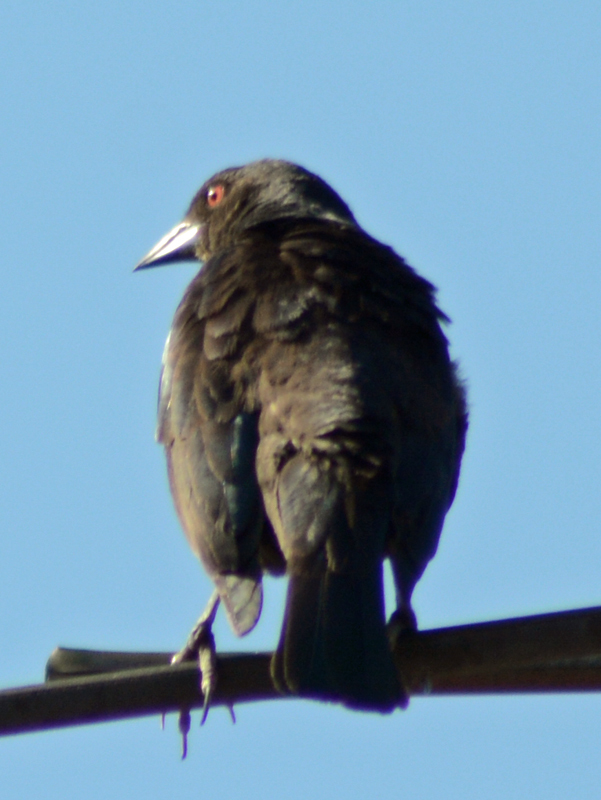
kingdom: Animalia
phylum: Chordata
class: Aves
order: Passeriformes
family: Icteridae
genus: Molothrus
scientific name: Molothrus aeneus
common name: Bronzed cowbird
